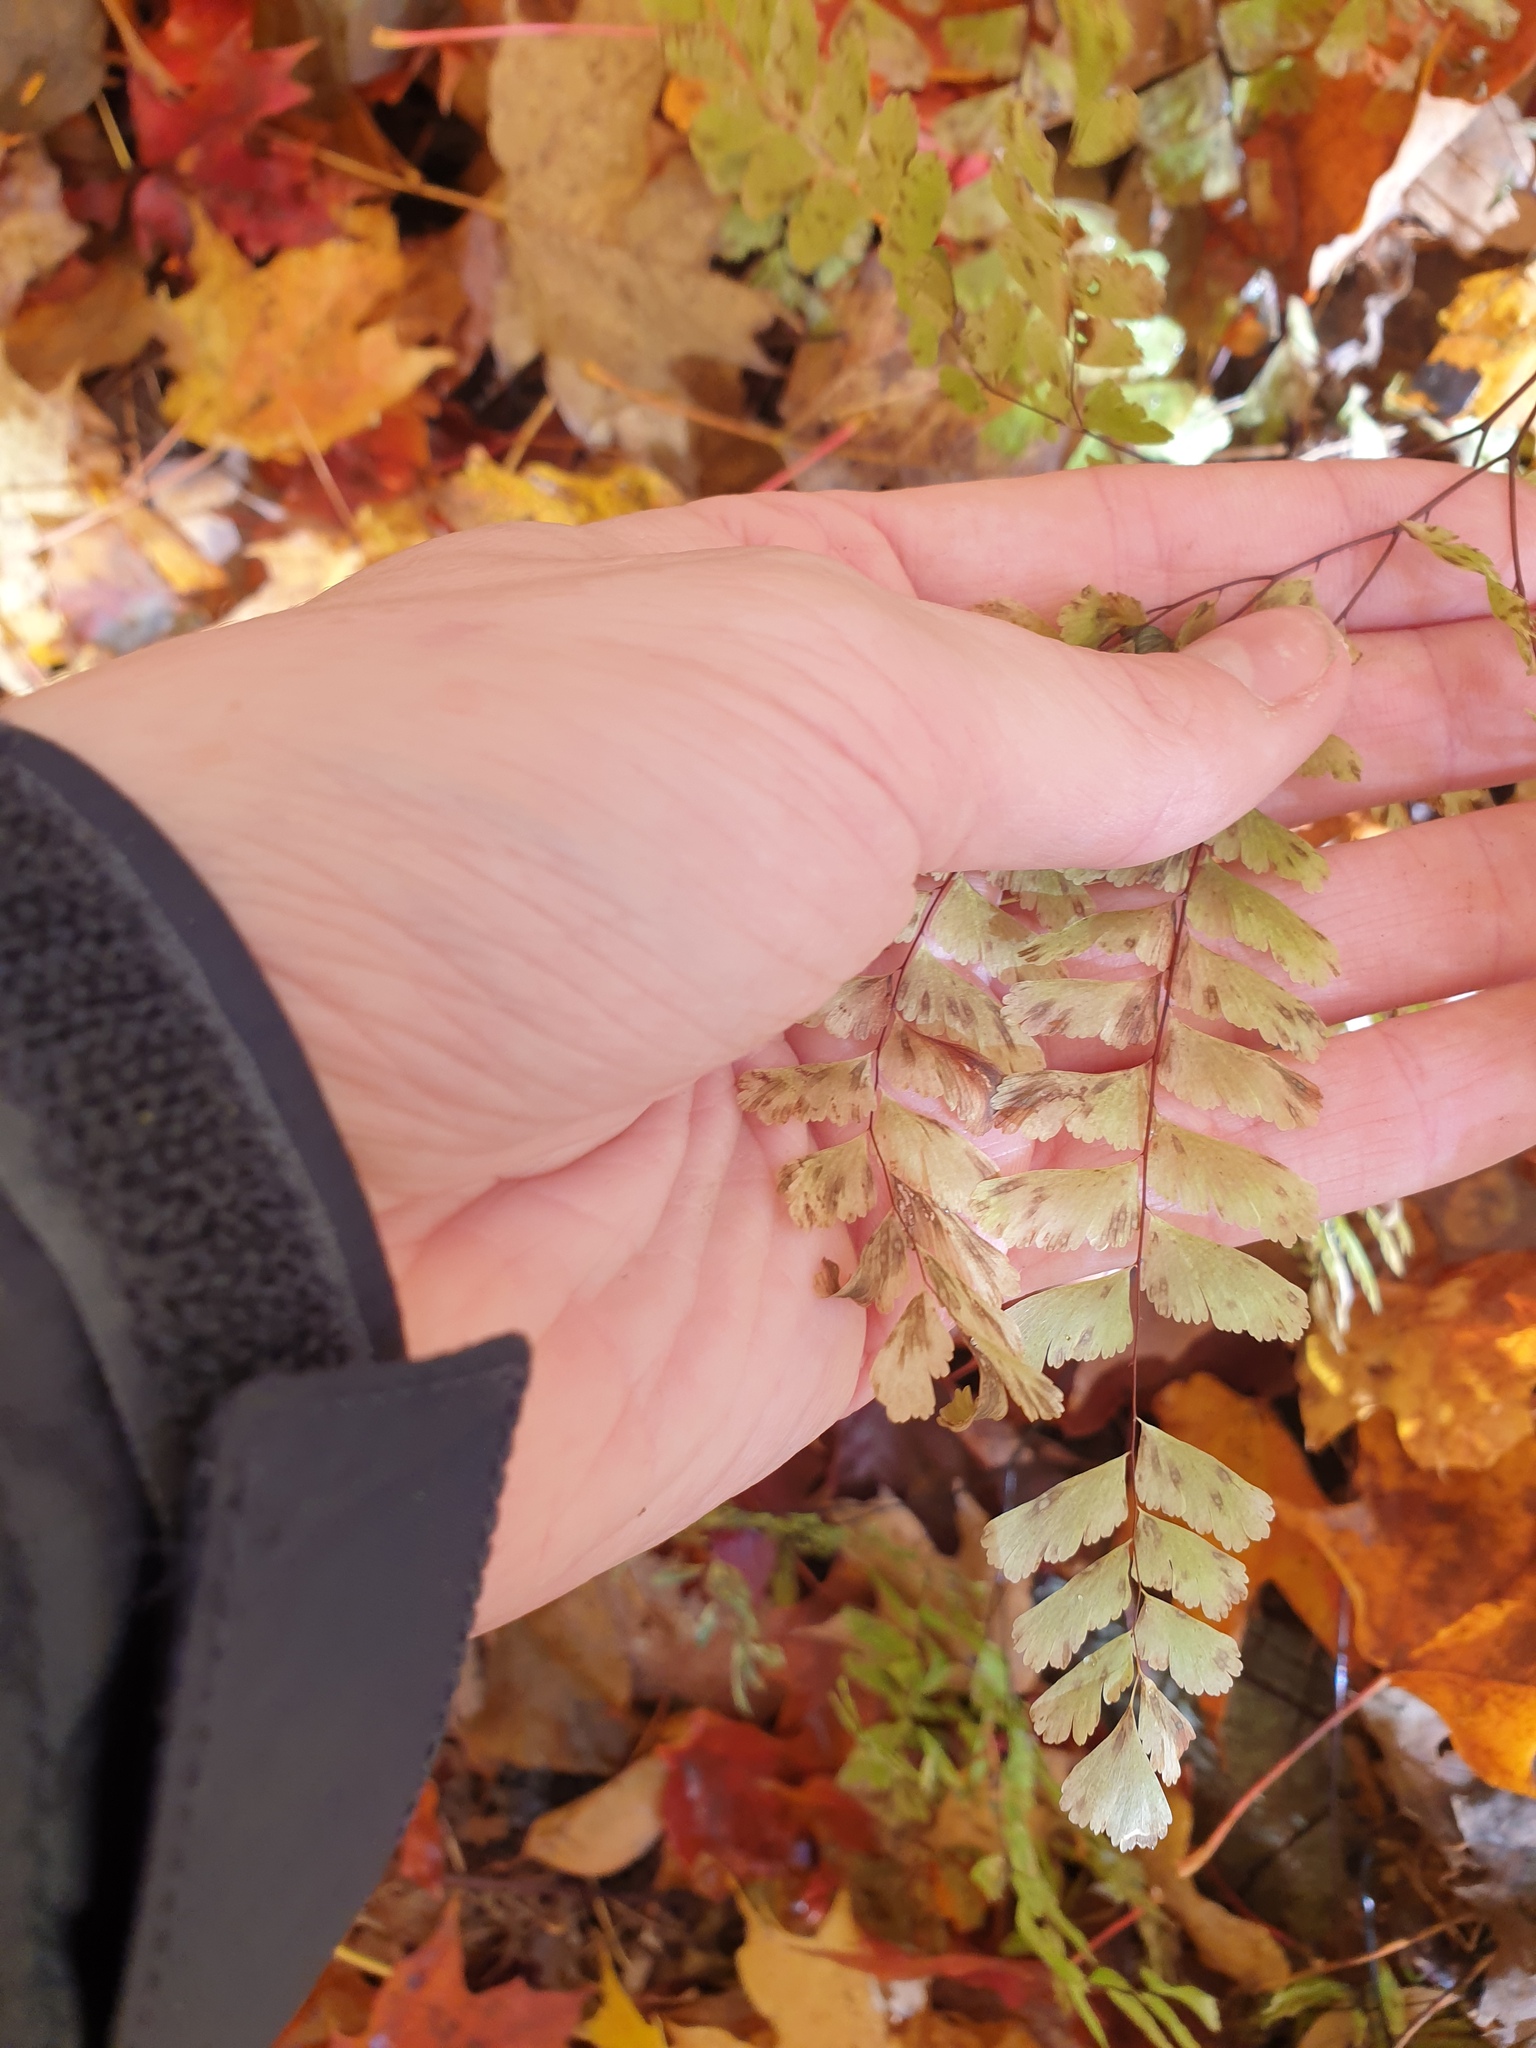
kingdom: Plantae
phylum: Tracheophyta
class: Polypodiopsida
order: Polypodiales
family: Pteridaceae
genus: Adiantum
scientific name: Adiantum pedatum
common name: Five-finger fern
